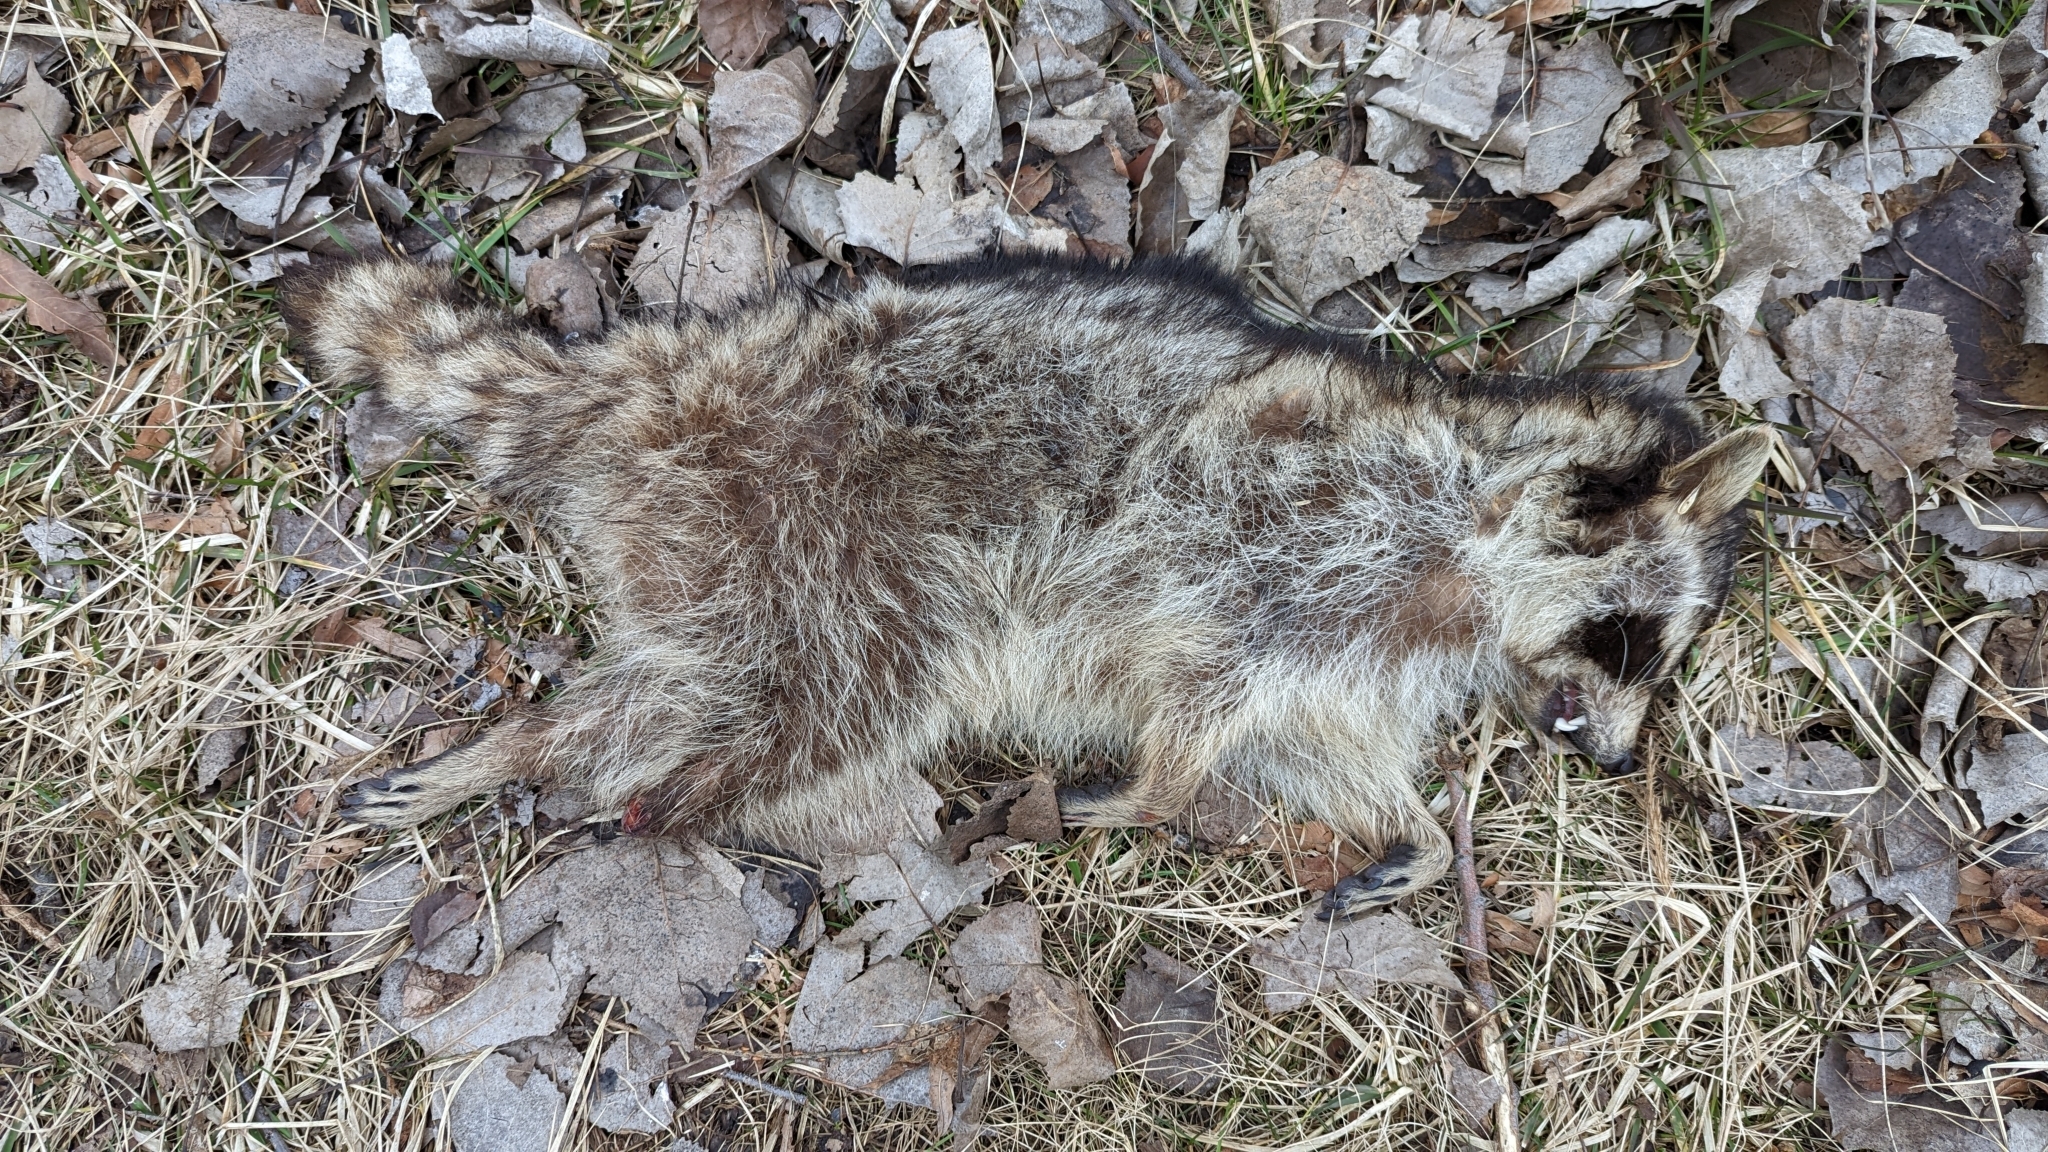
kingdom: Animalia
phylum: Chordata
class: Mammalia
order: Carnivora
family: Procyonidae
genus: Procyon
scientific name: Procyon lotor
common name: Raccoon
